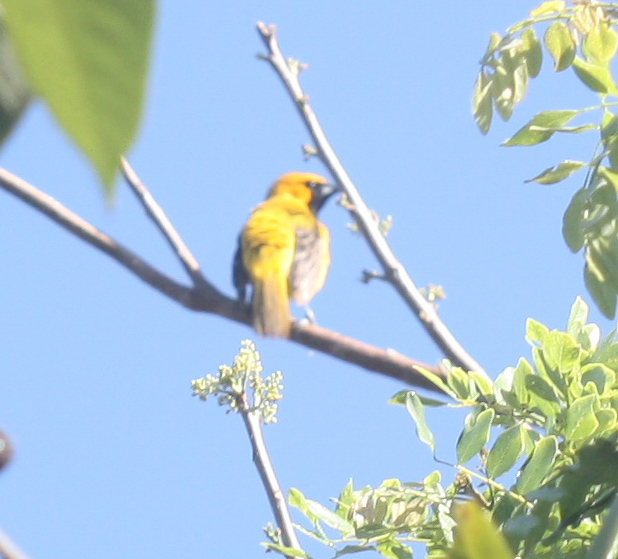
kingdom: Animalia
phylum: Chordata
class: Aves
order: Passeriformes
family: Icteridae
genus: Icterus
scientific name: Icterus auratus
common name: Orange oriole
